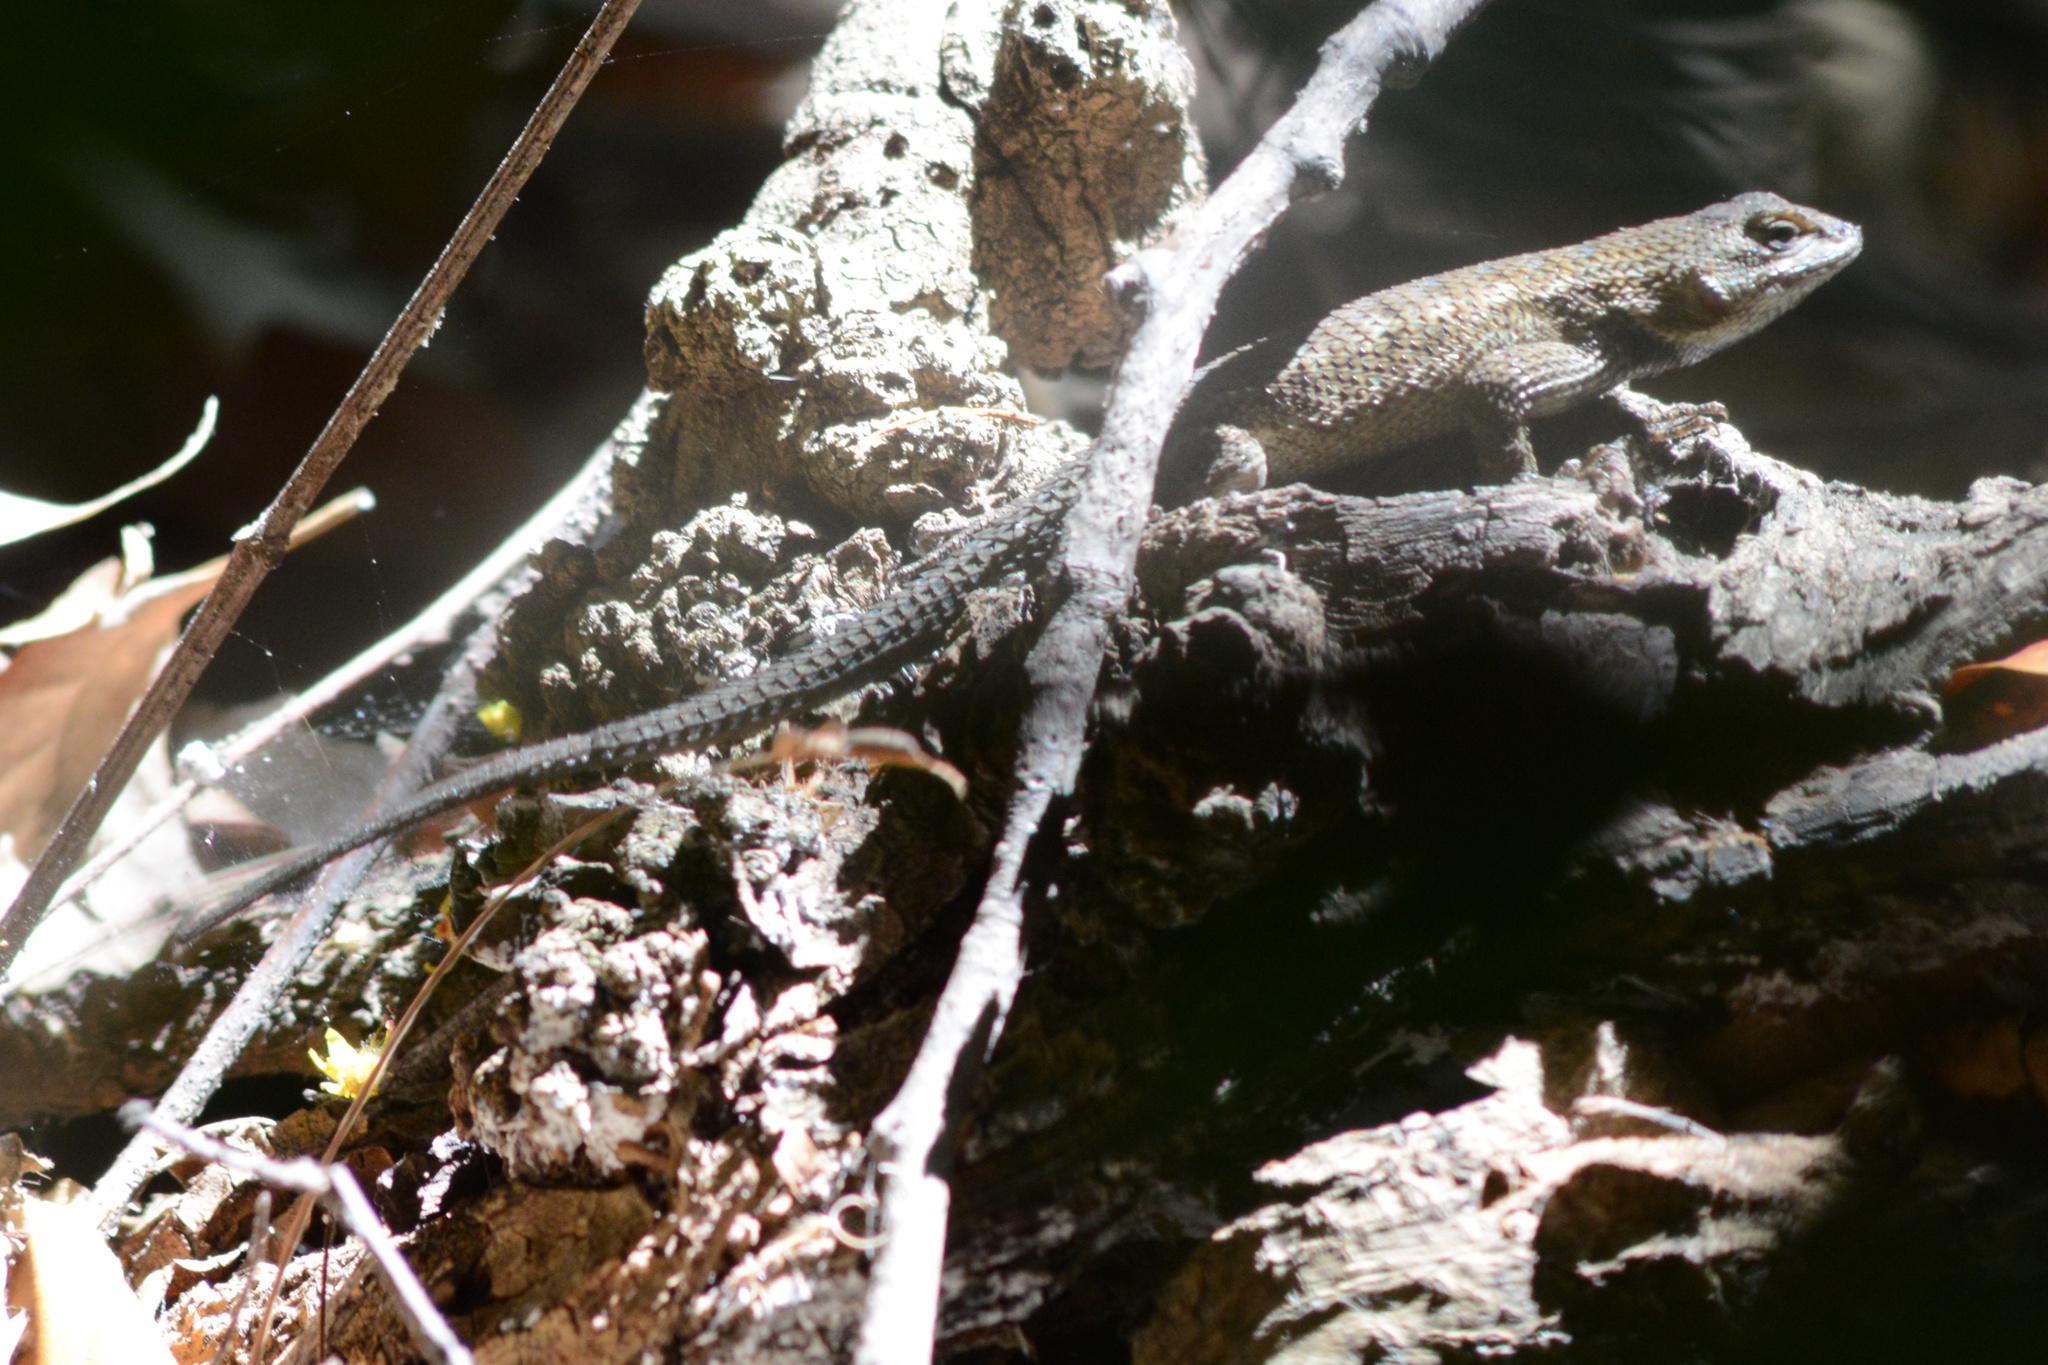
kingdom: Animalia
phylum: Chordata
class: Squamata
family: Phrynosomatidae
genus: Sceloporus
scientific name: Sceloporus occidentalis
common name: Western fence lizard
